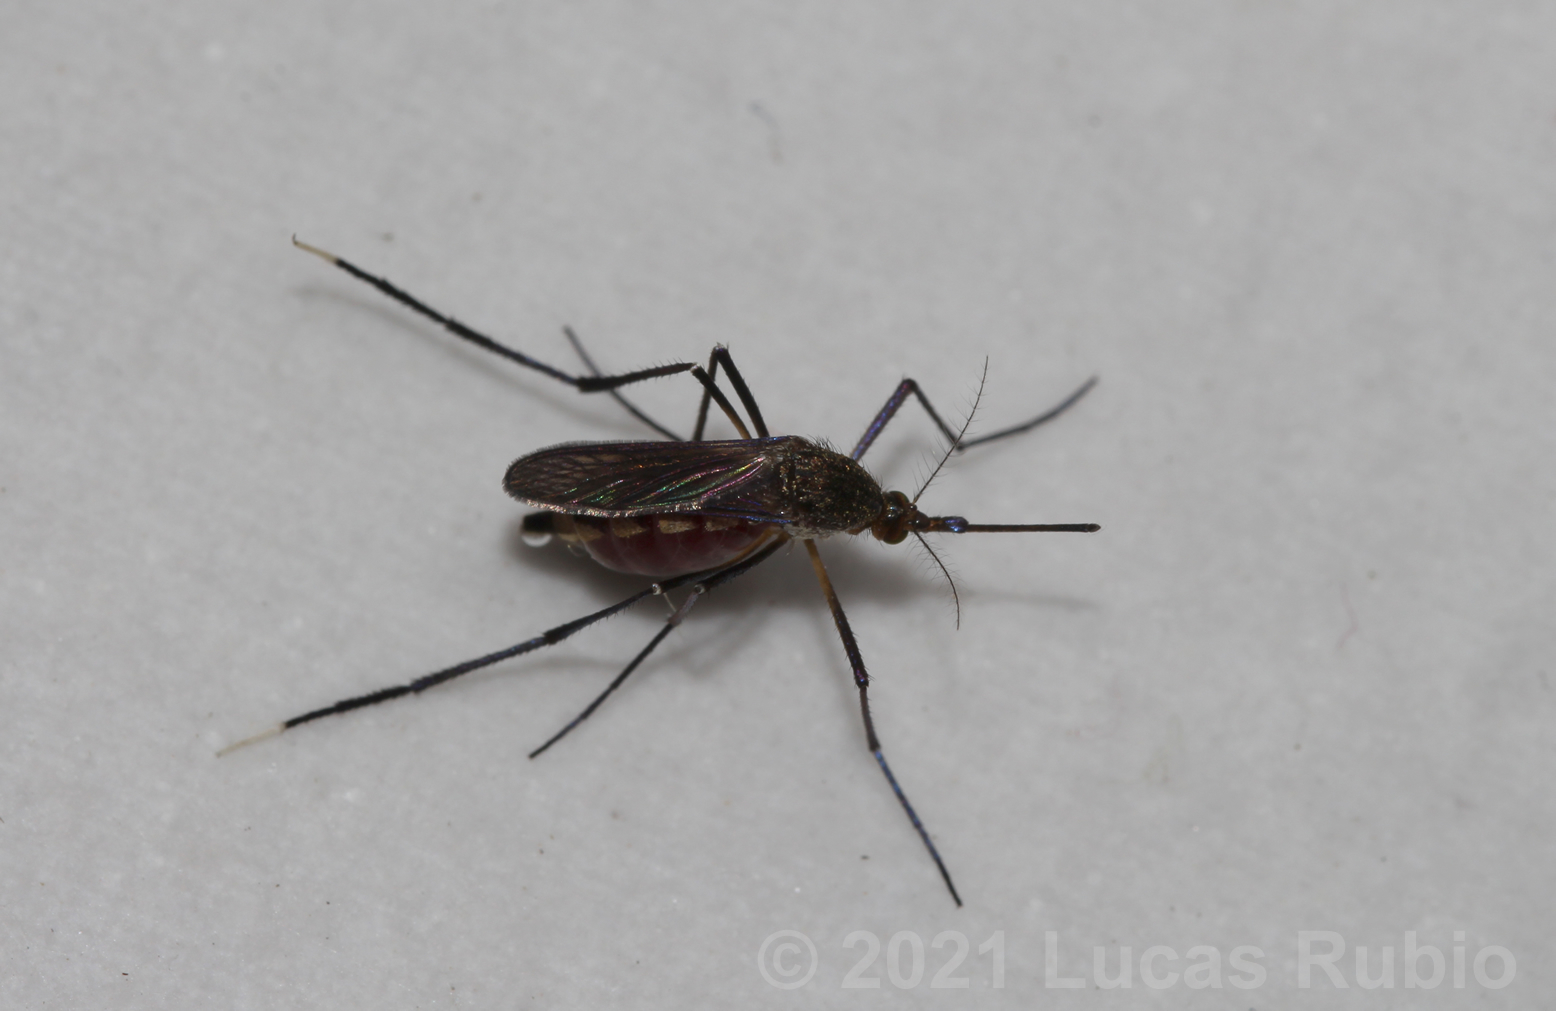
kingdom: Animalia
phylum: Arthropoda
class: Insecta
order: Diptera
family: Culicidae
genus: Psorophora
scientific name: Psorophora ferox
